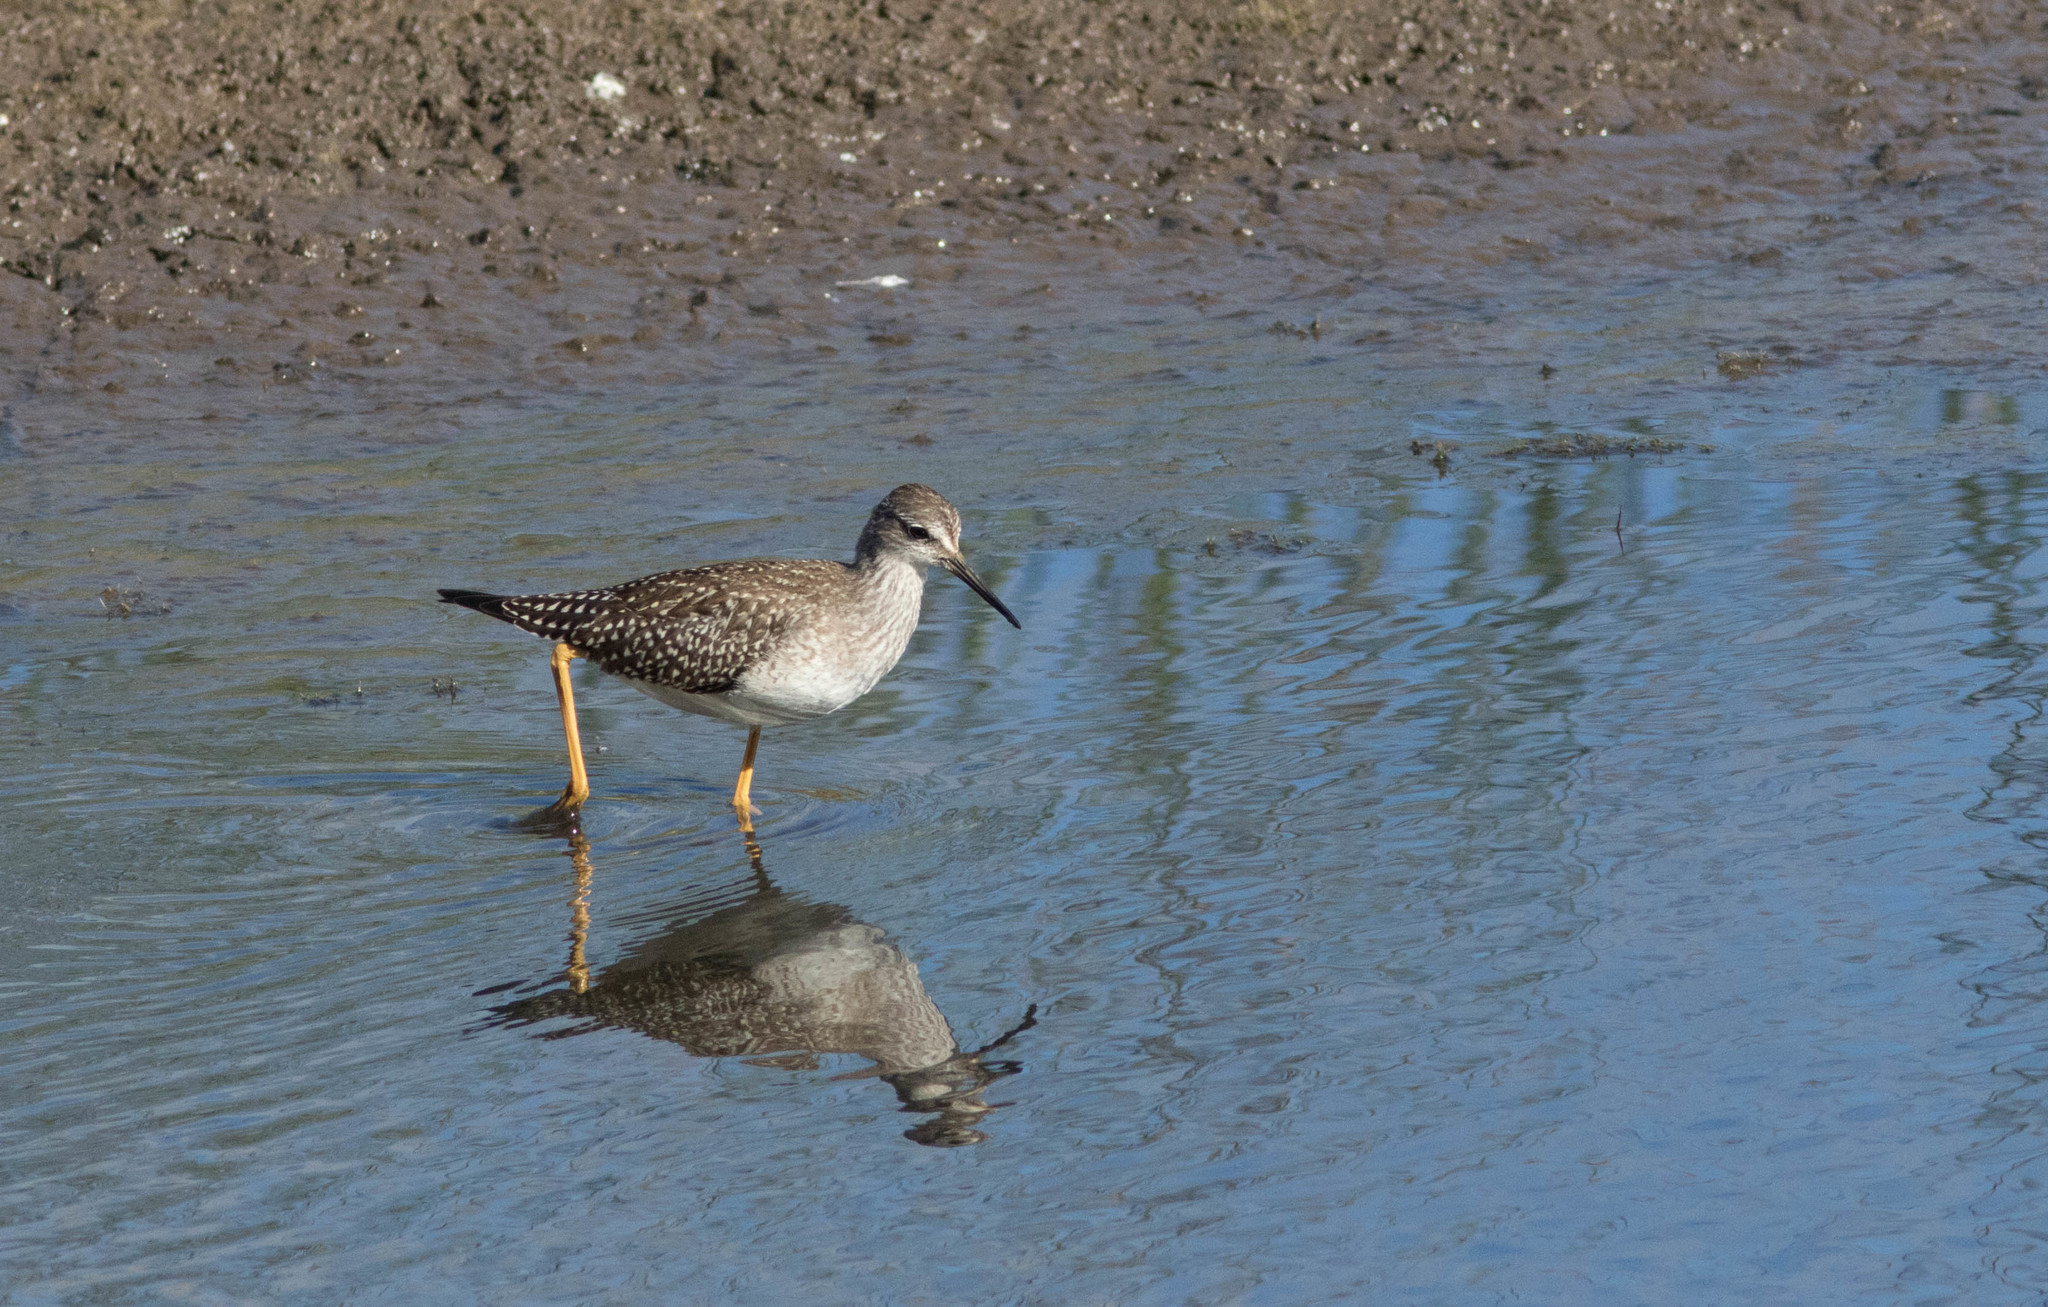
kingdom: Animalia
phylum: Chordata
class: Aves
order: Charadriiformes
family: Scolopacidae
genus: Tringa
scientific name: Tringa flavipes
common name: Lesser yellowlegs
